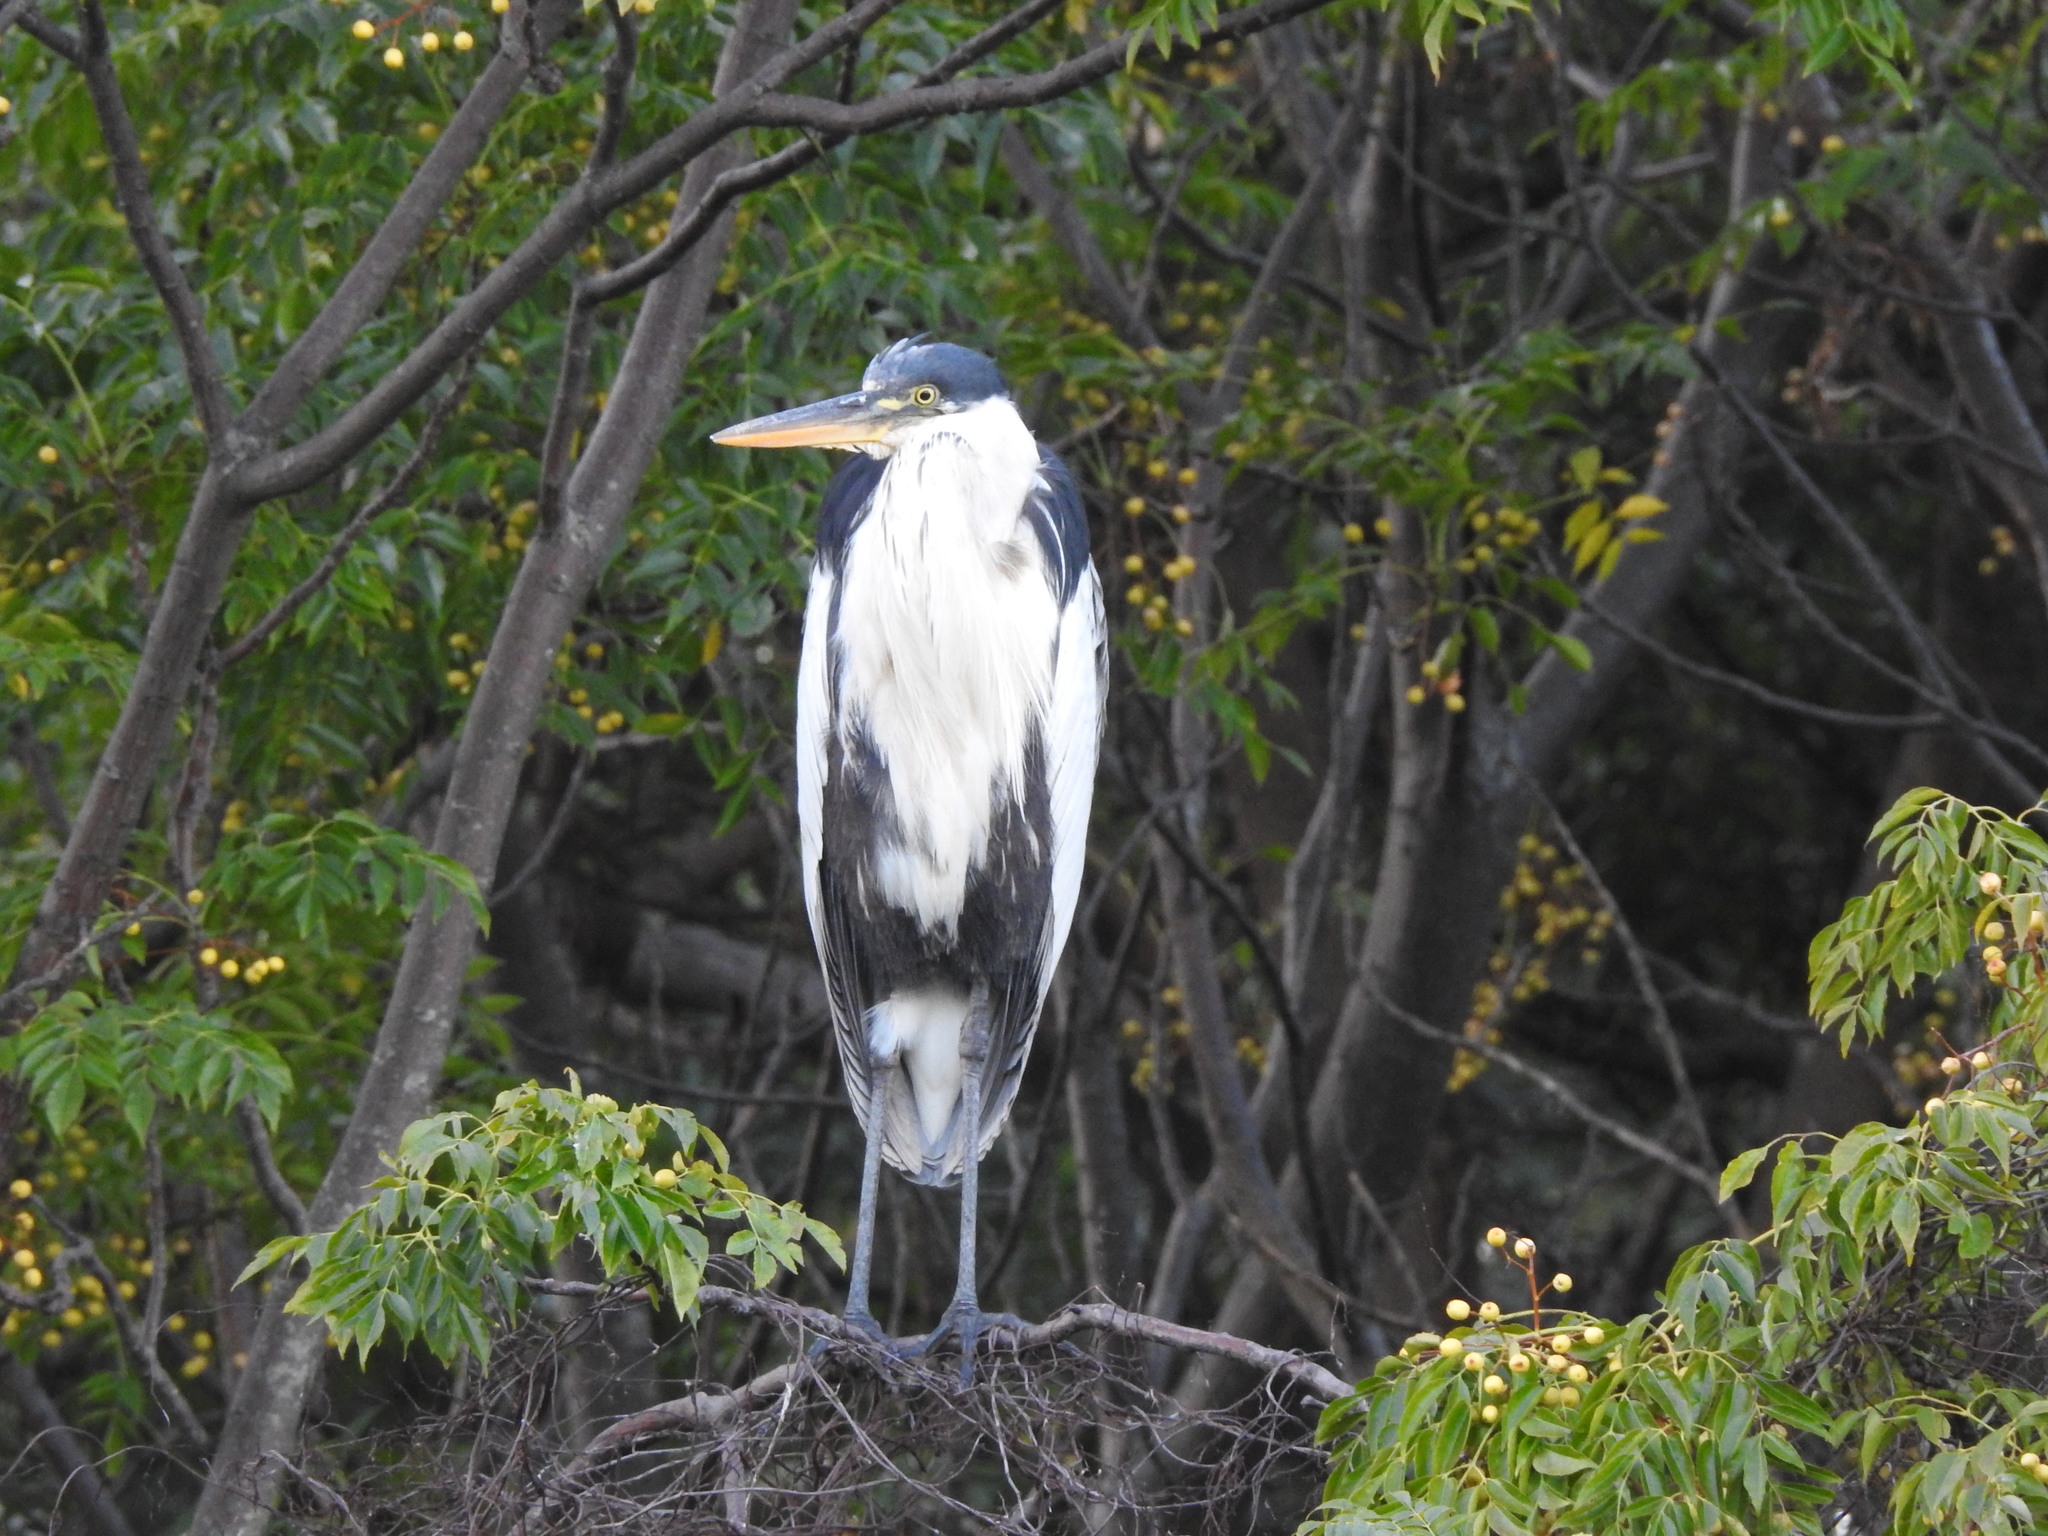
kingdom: Animalia
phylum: Chordata
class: Aves
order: Pelecaniformes
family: Ardeidae
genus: Ardea
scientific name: Ardea cocoi
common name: Cocoi heron
